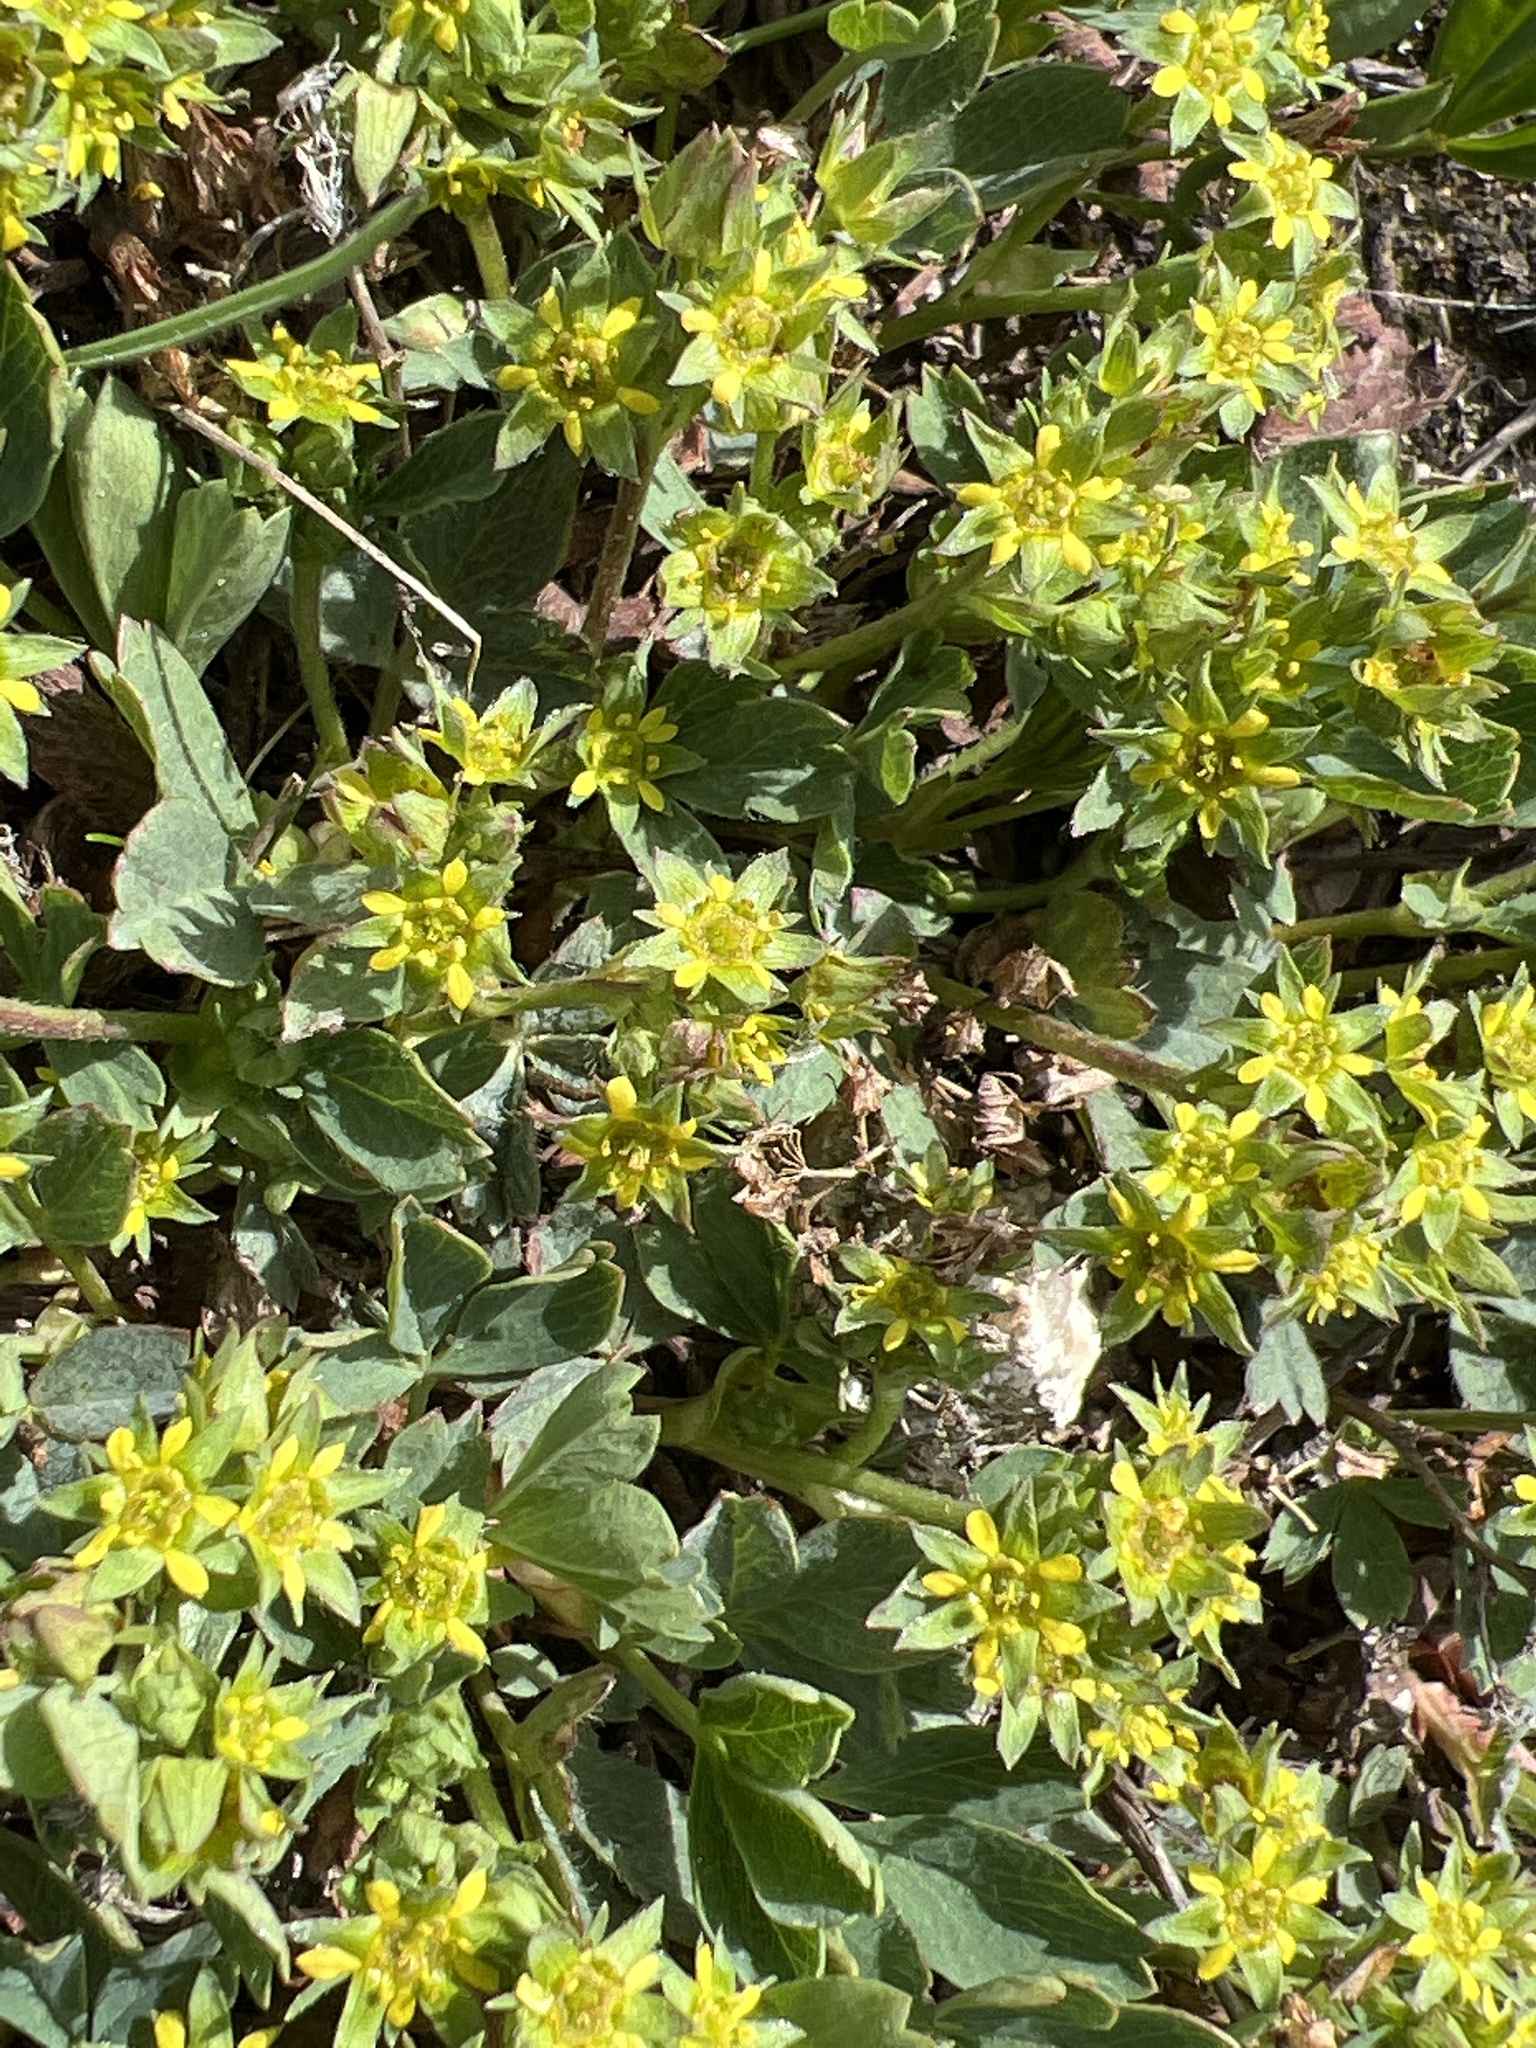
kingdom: Plantae
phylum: Tracheophyta
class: Magnoliopsida
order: Rosales
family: Rosaceae
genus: Sibbaldia
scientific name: Sibbaldia procumbens
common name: Creeping sibbaldia
